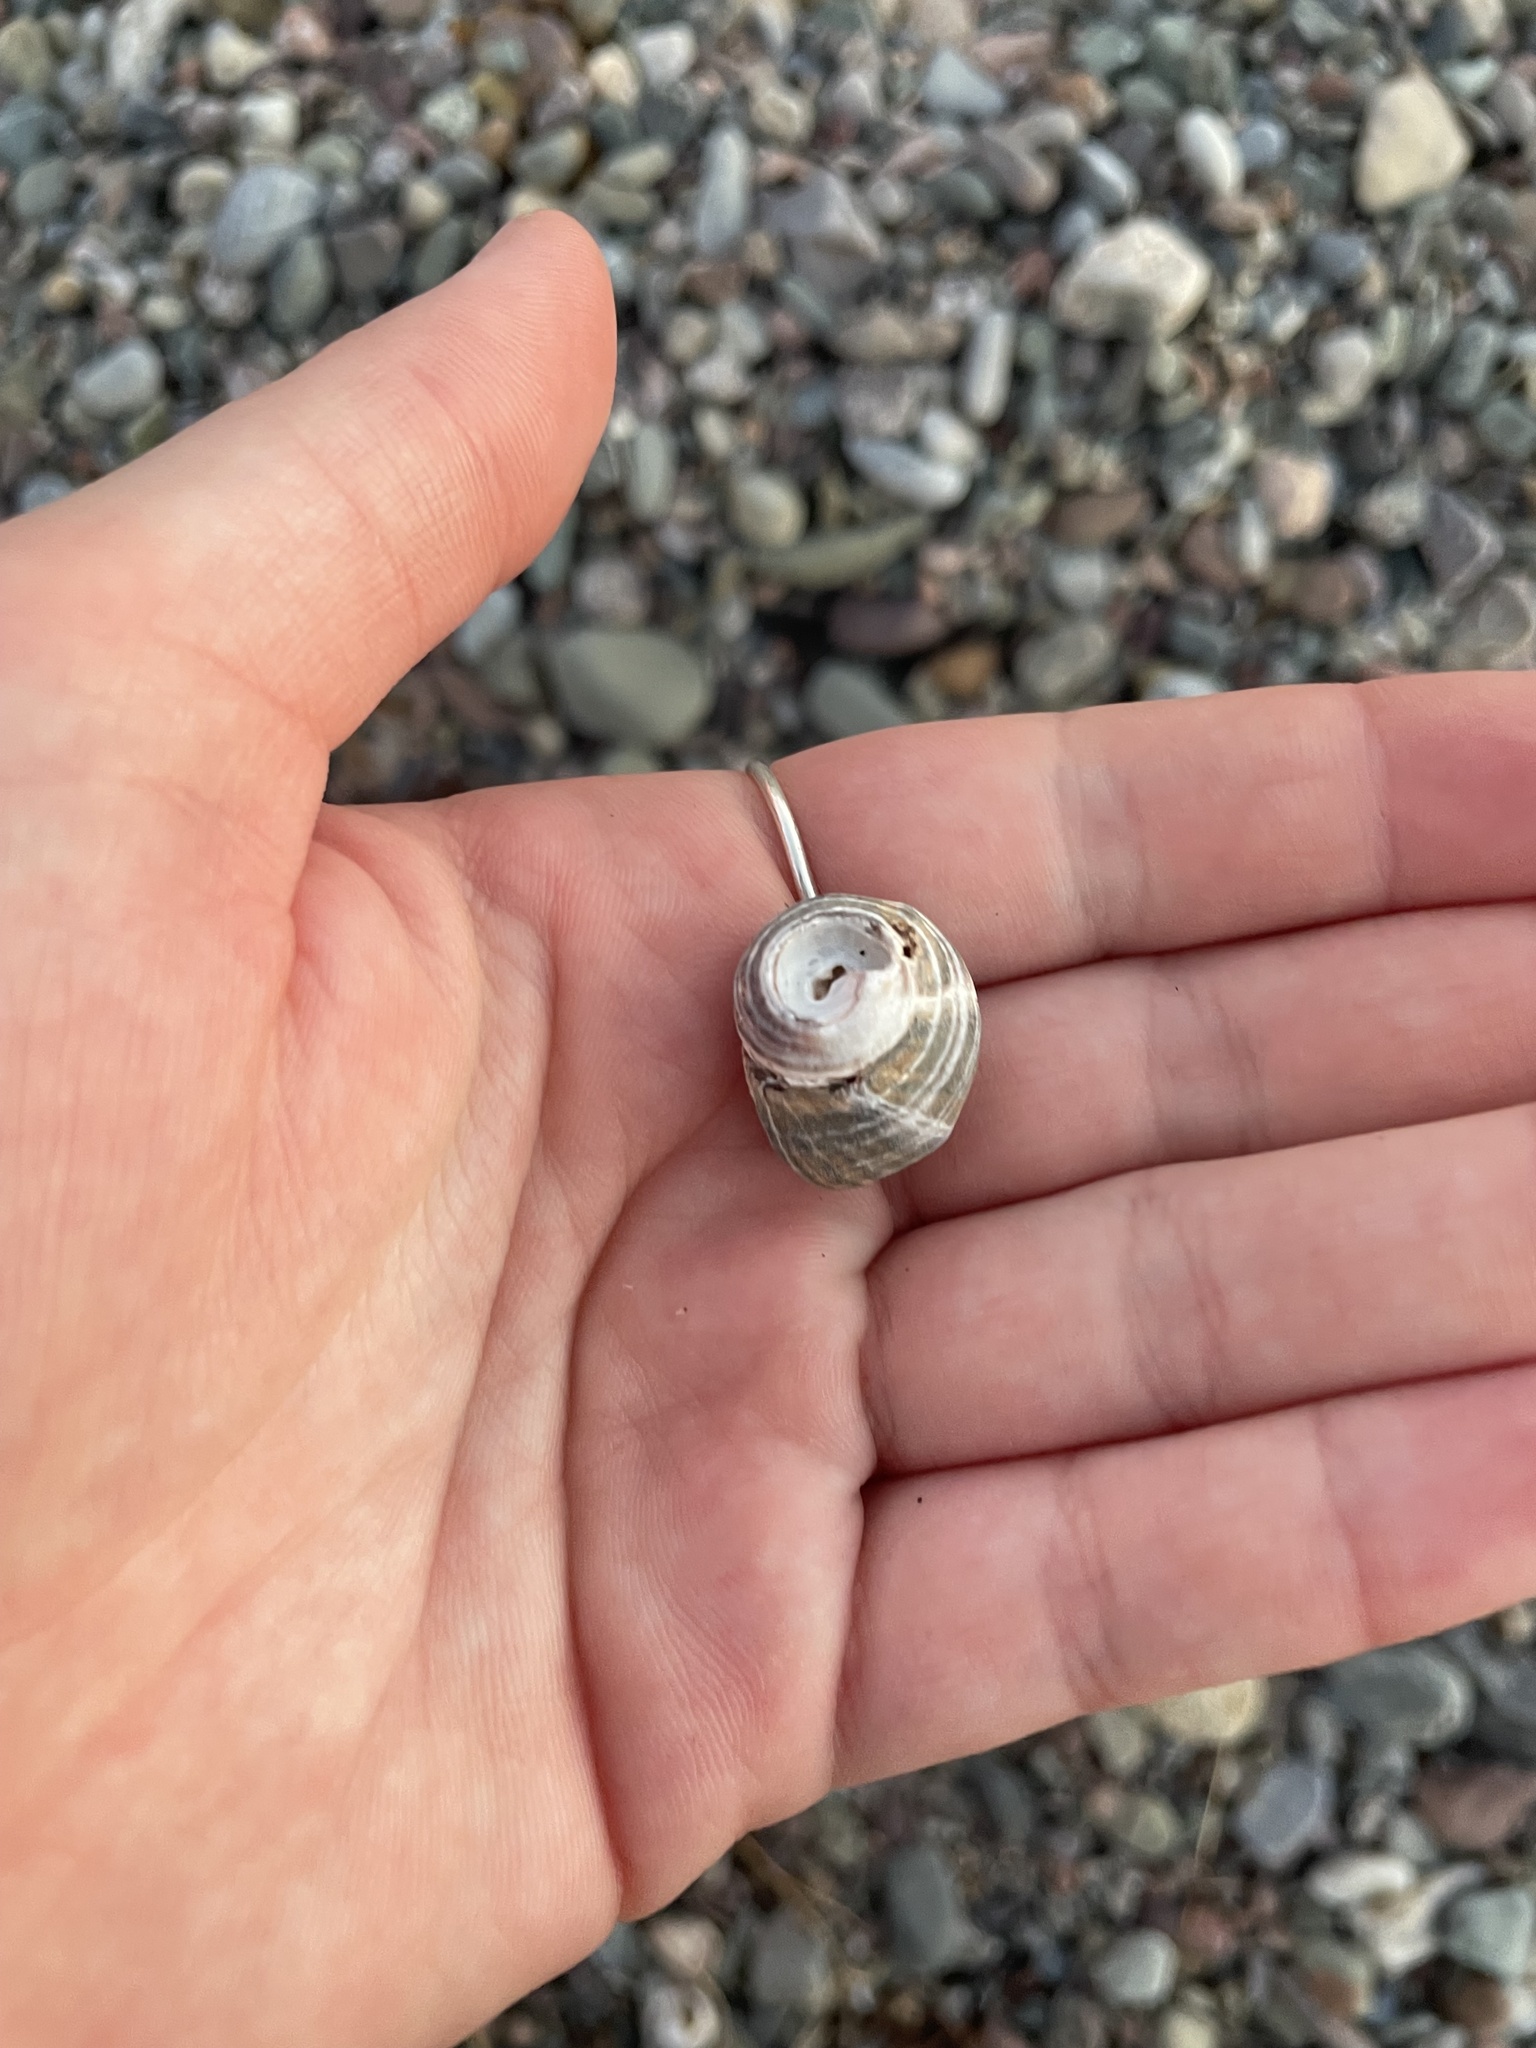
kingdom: Animalia
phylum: Mollusca
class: Gastropoda
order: Littorinimorpha
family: Littorinidae
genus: Littorina
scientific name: Littorina littorea
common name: Common periwinkle
